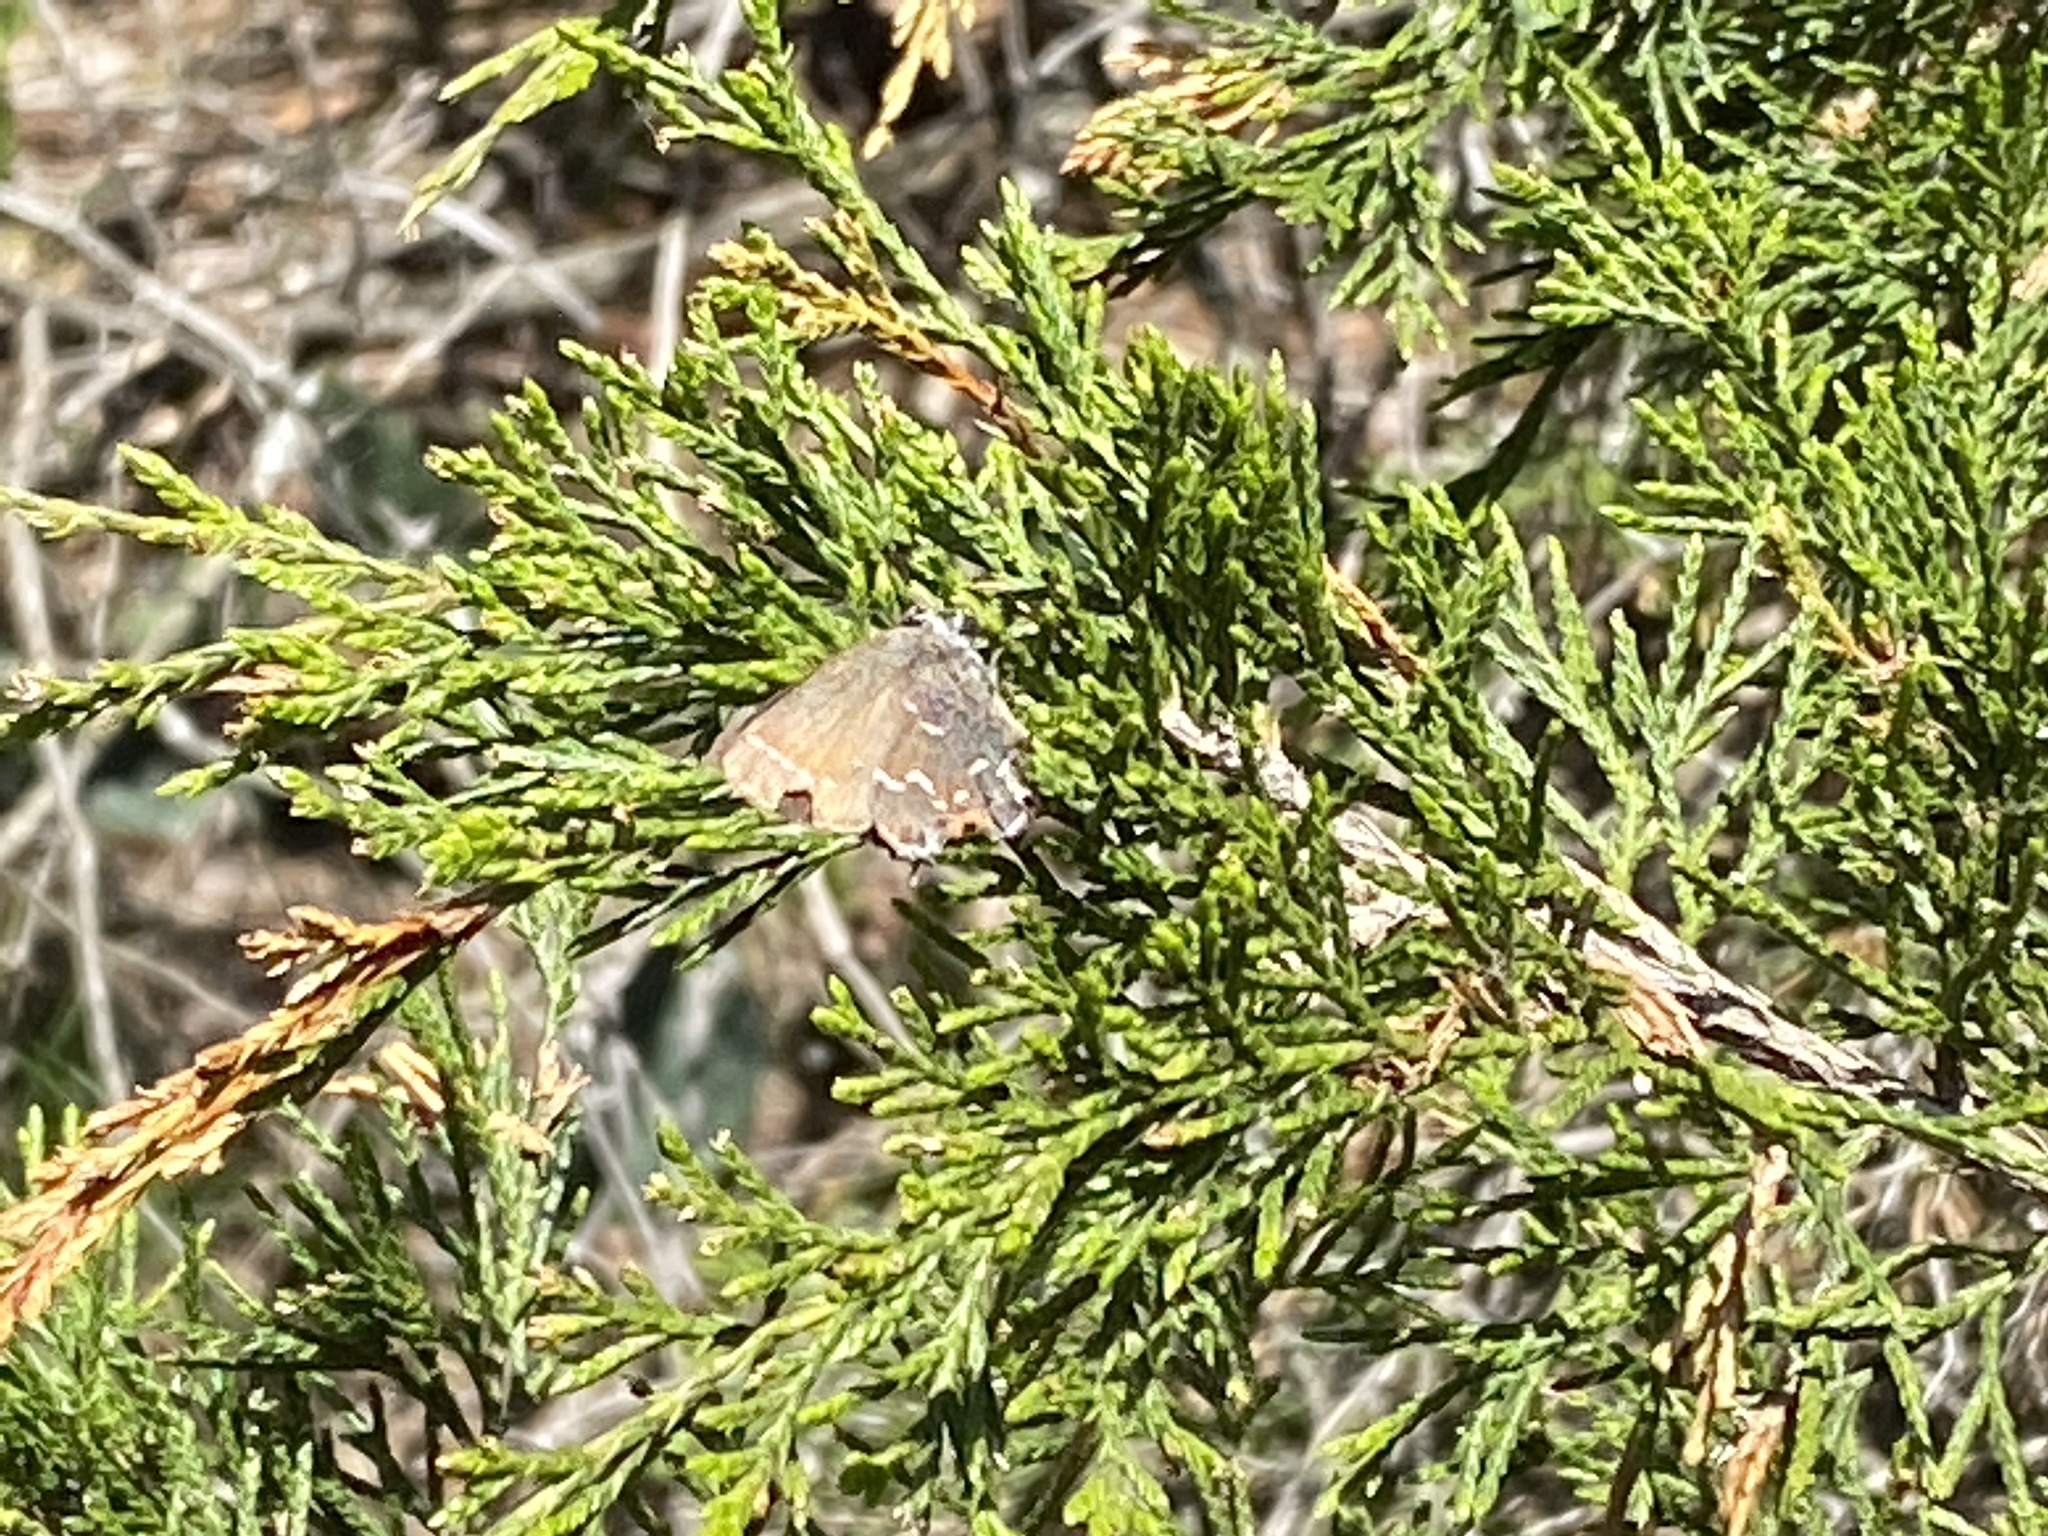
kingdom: Animalia
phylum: Arthropoda
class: Insecta
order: Lepidoptera
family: Lycaenidae
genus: Mitoura
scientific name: Mitoura gryneus
